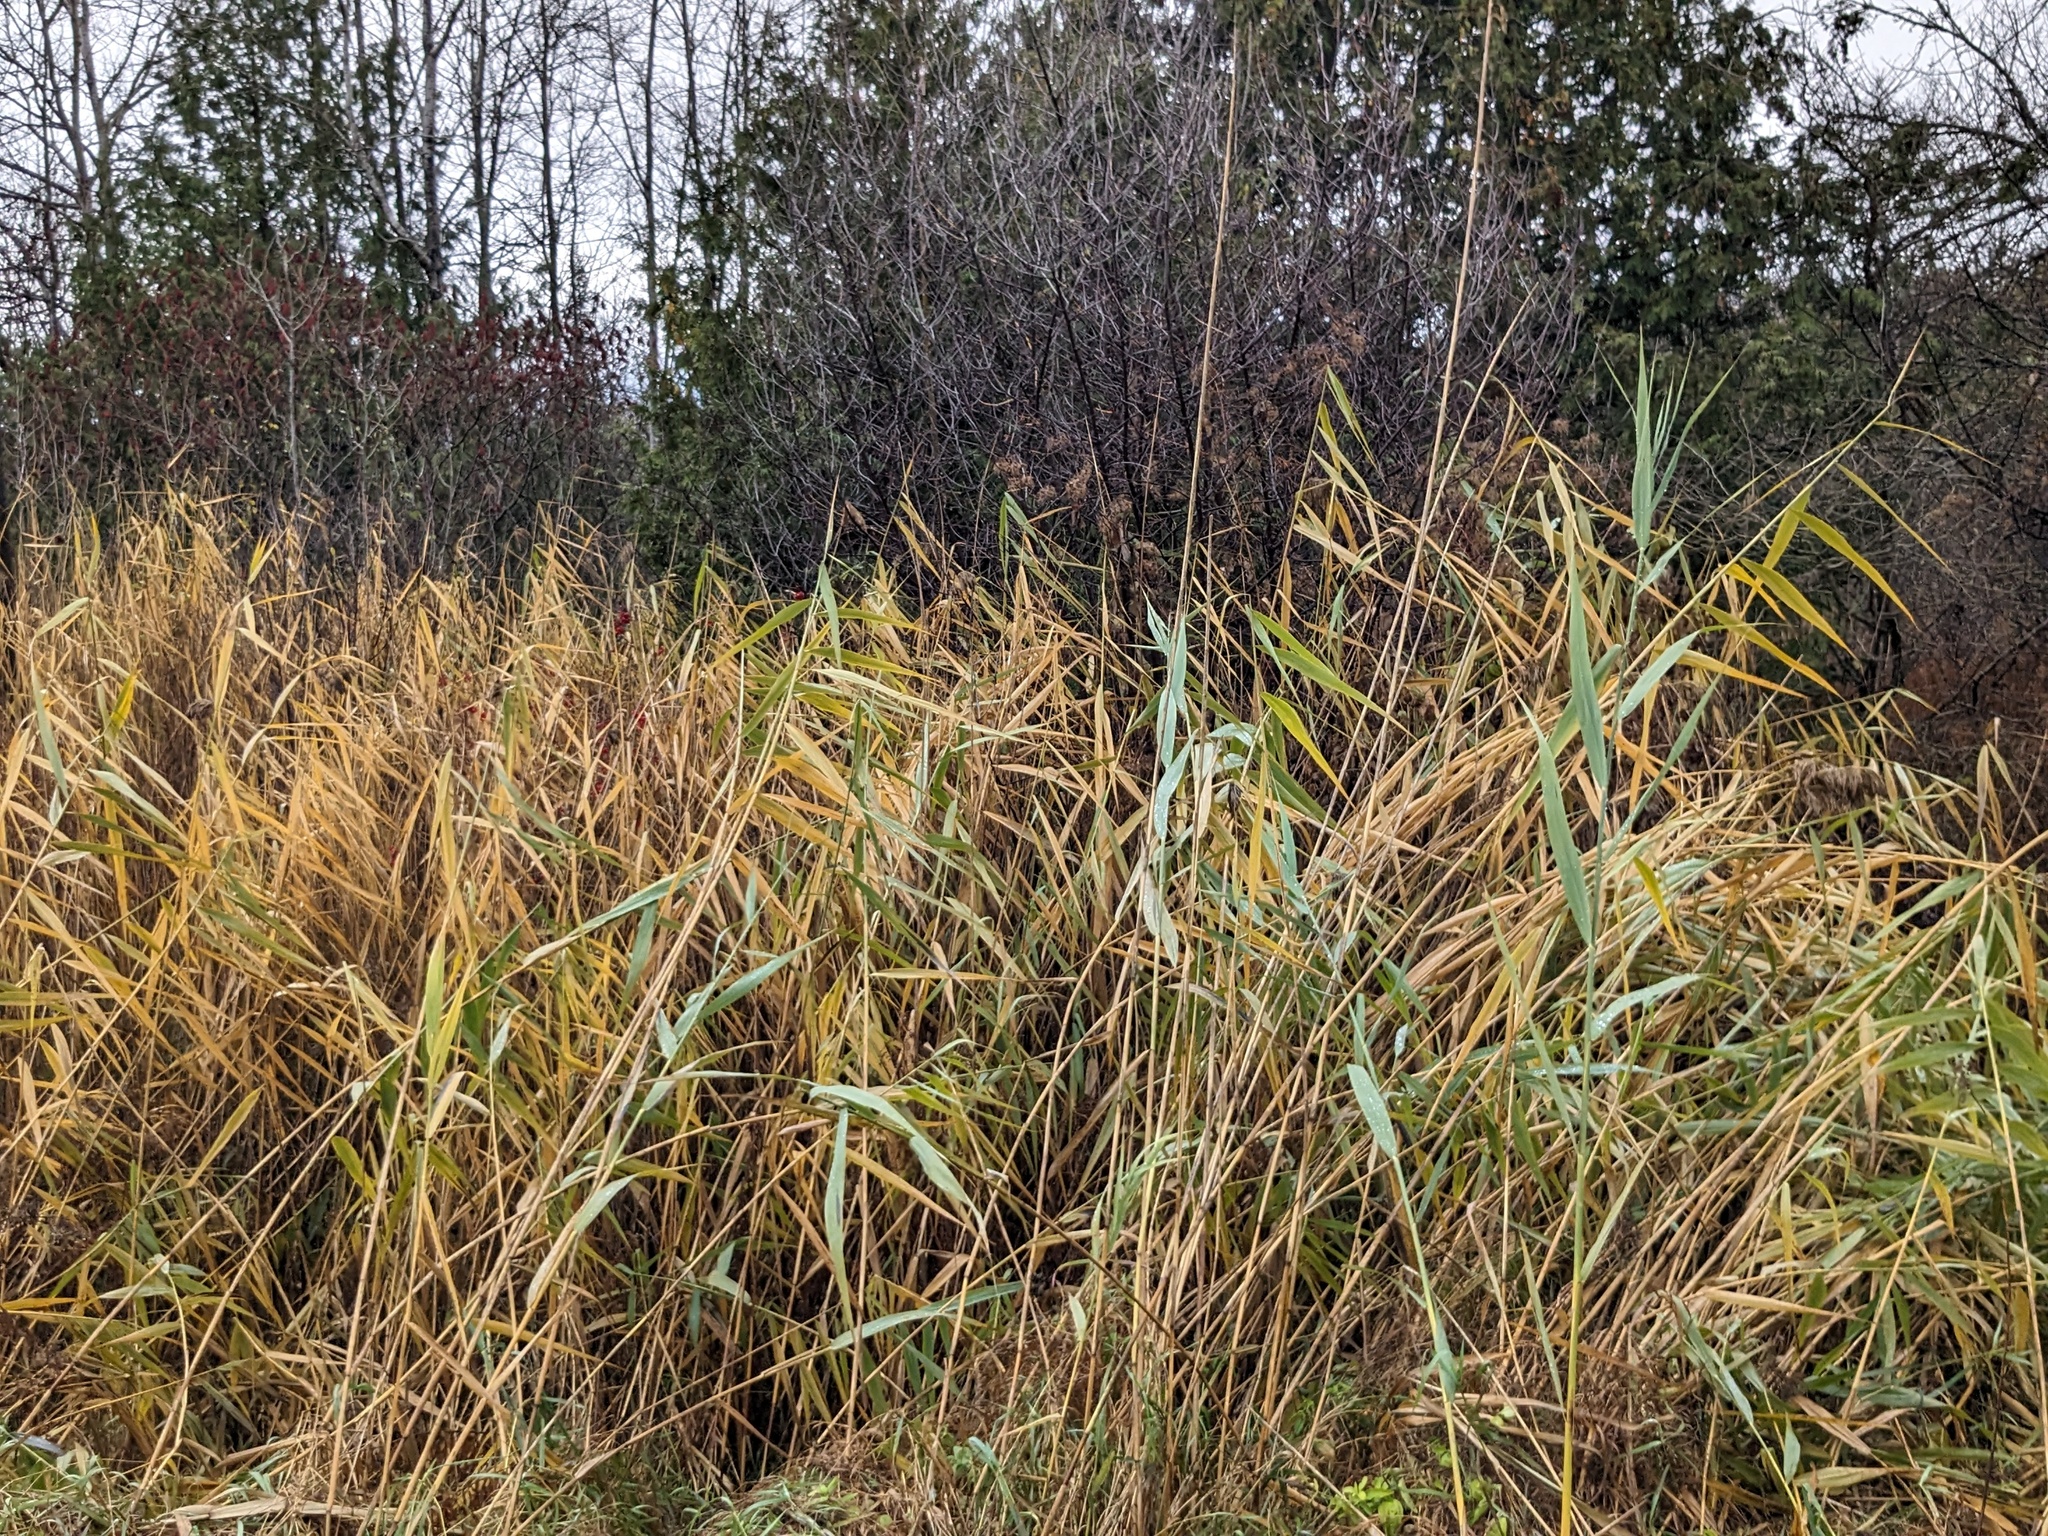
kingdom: Plantae
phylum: Tracheophyta
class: Liliopsida
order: Poales
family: Poaceae
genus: Phragmites
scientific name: Phragmites australis
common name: Common reed
